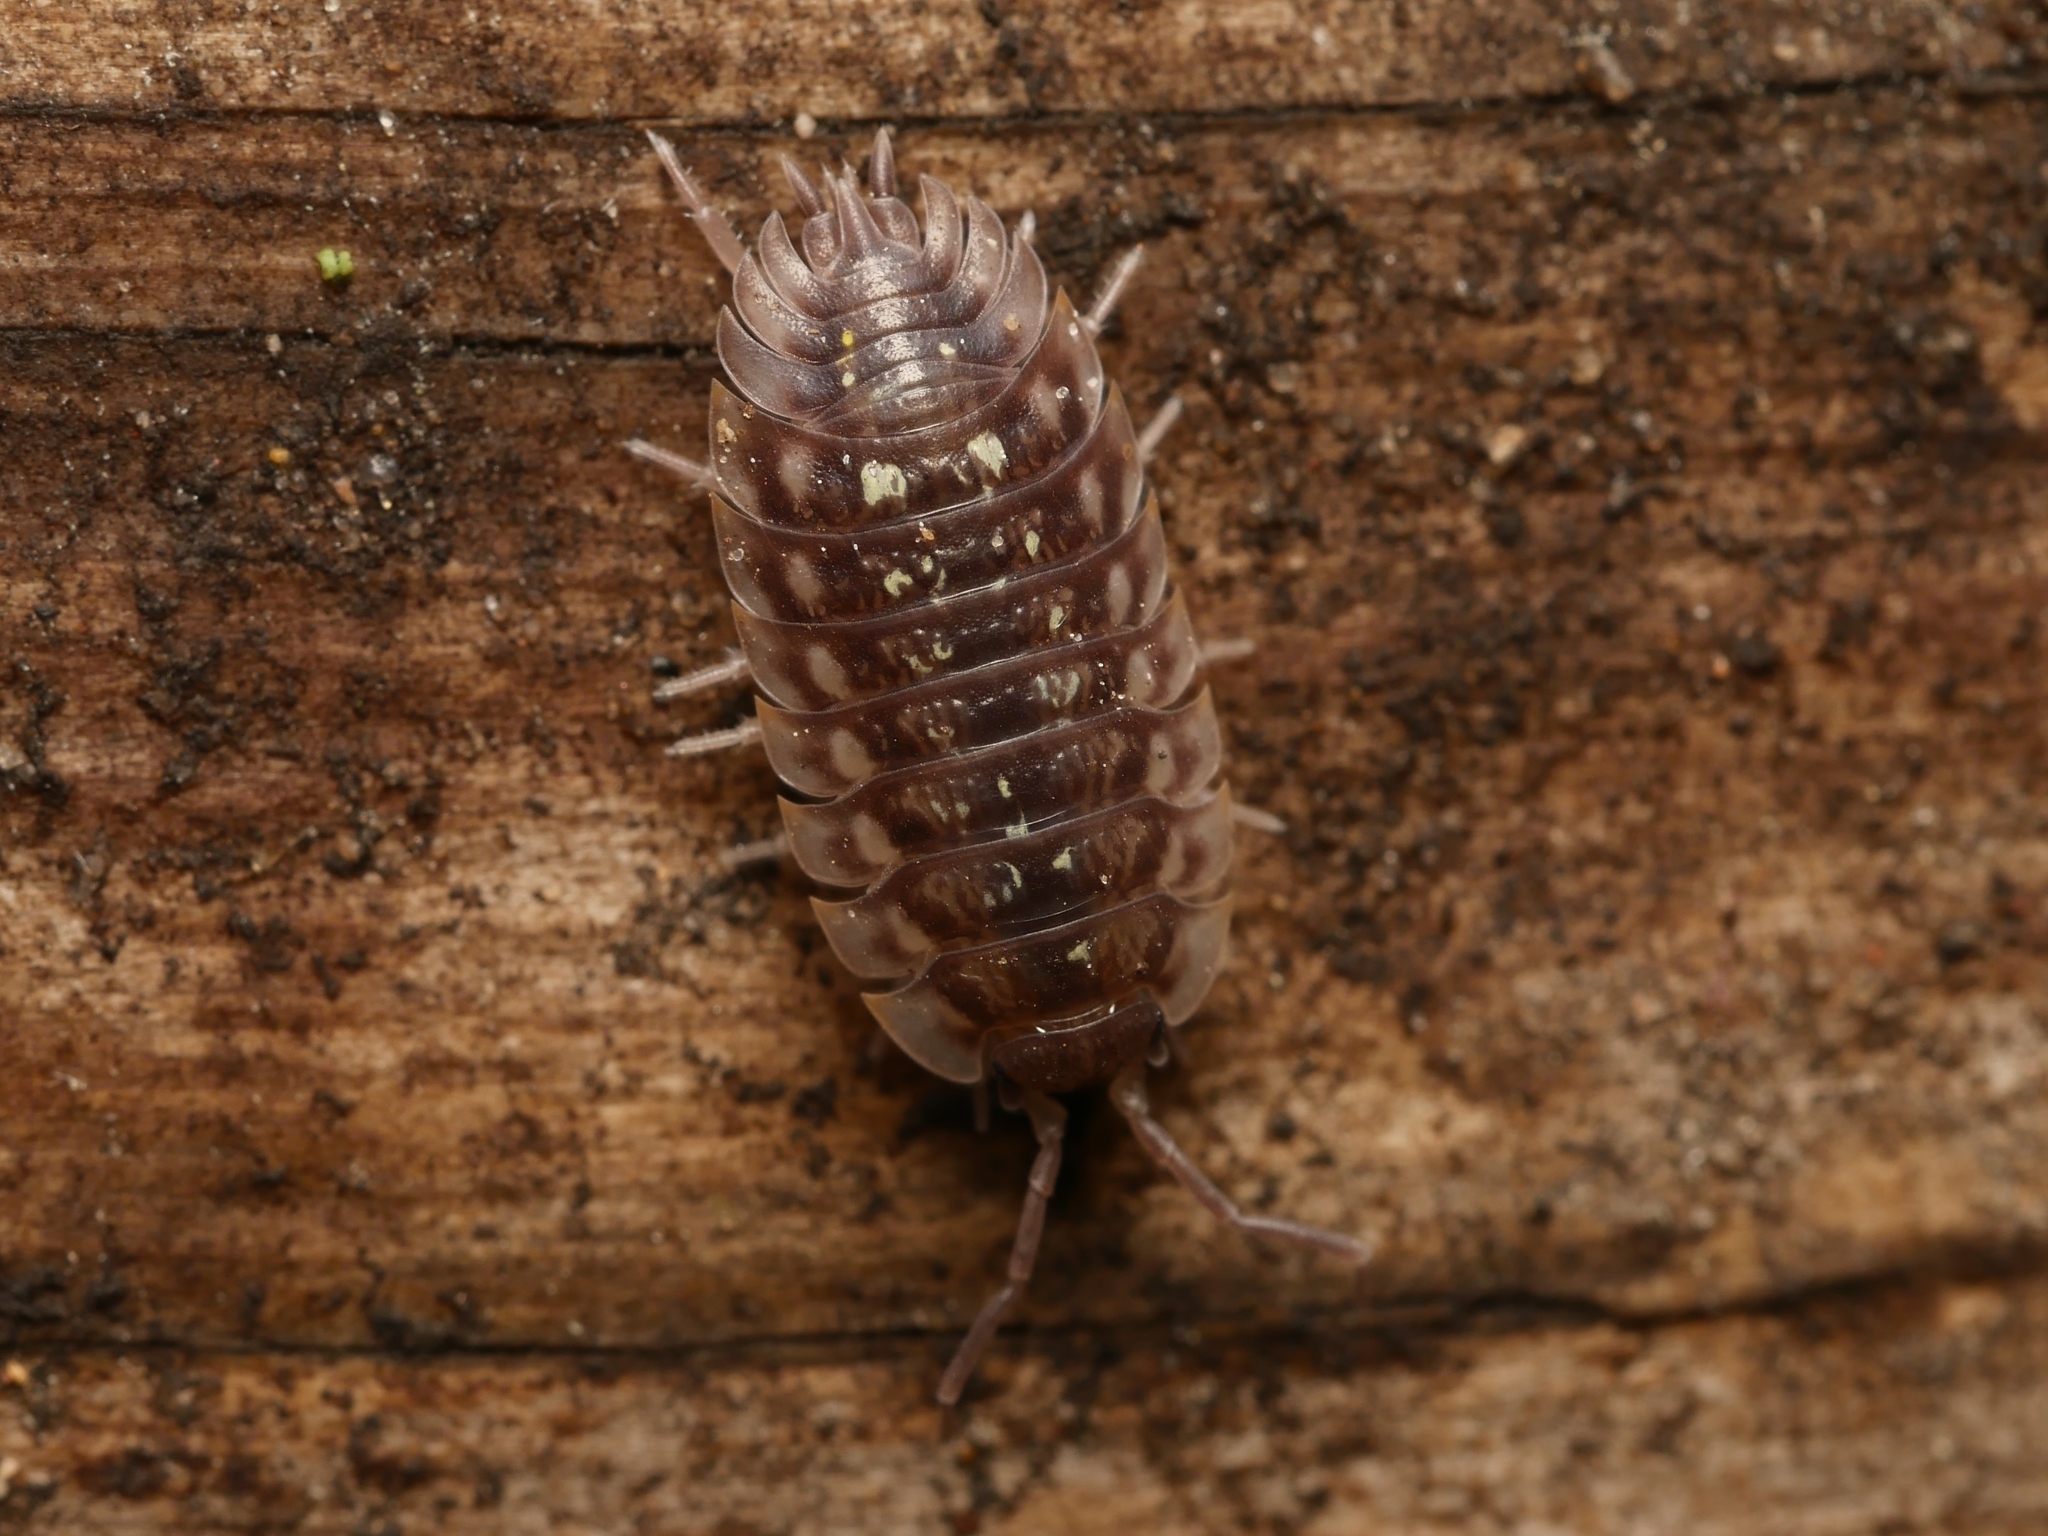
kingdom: Animalia
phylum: Arthropoda
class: Malacostraca
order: Isopoda
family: Oniscidae
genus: Oniscus
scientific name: Oniscus asellus
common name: Common shiny woodlouse
